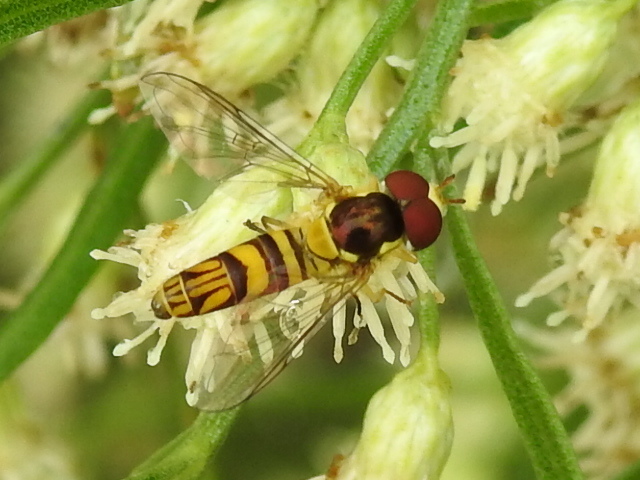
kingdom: Animalia
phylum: Arthropoda
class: Insecta
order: Diptera
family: Syrphidae
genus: Allograpta
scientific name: Allograpta obliqua
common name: Common oblique syrphid
